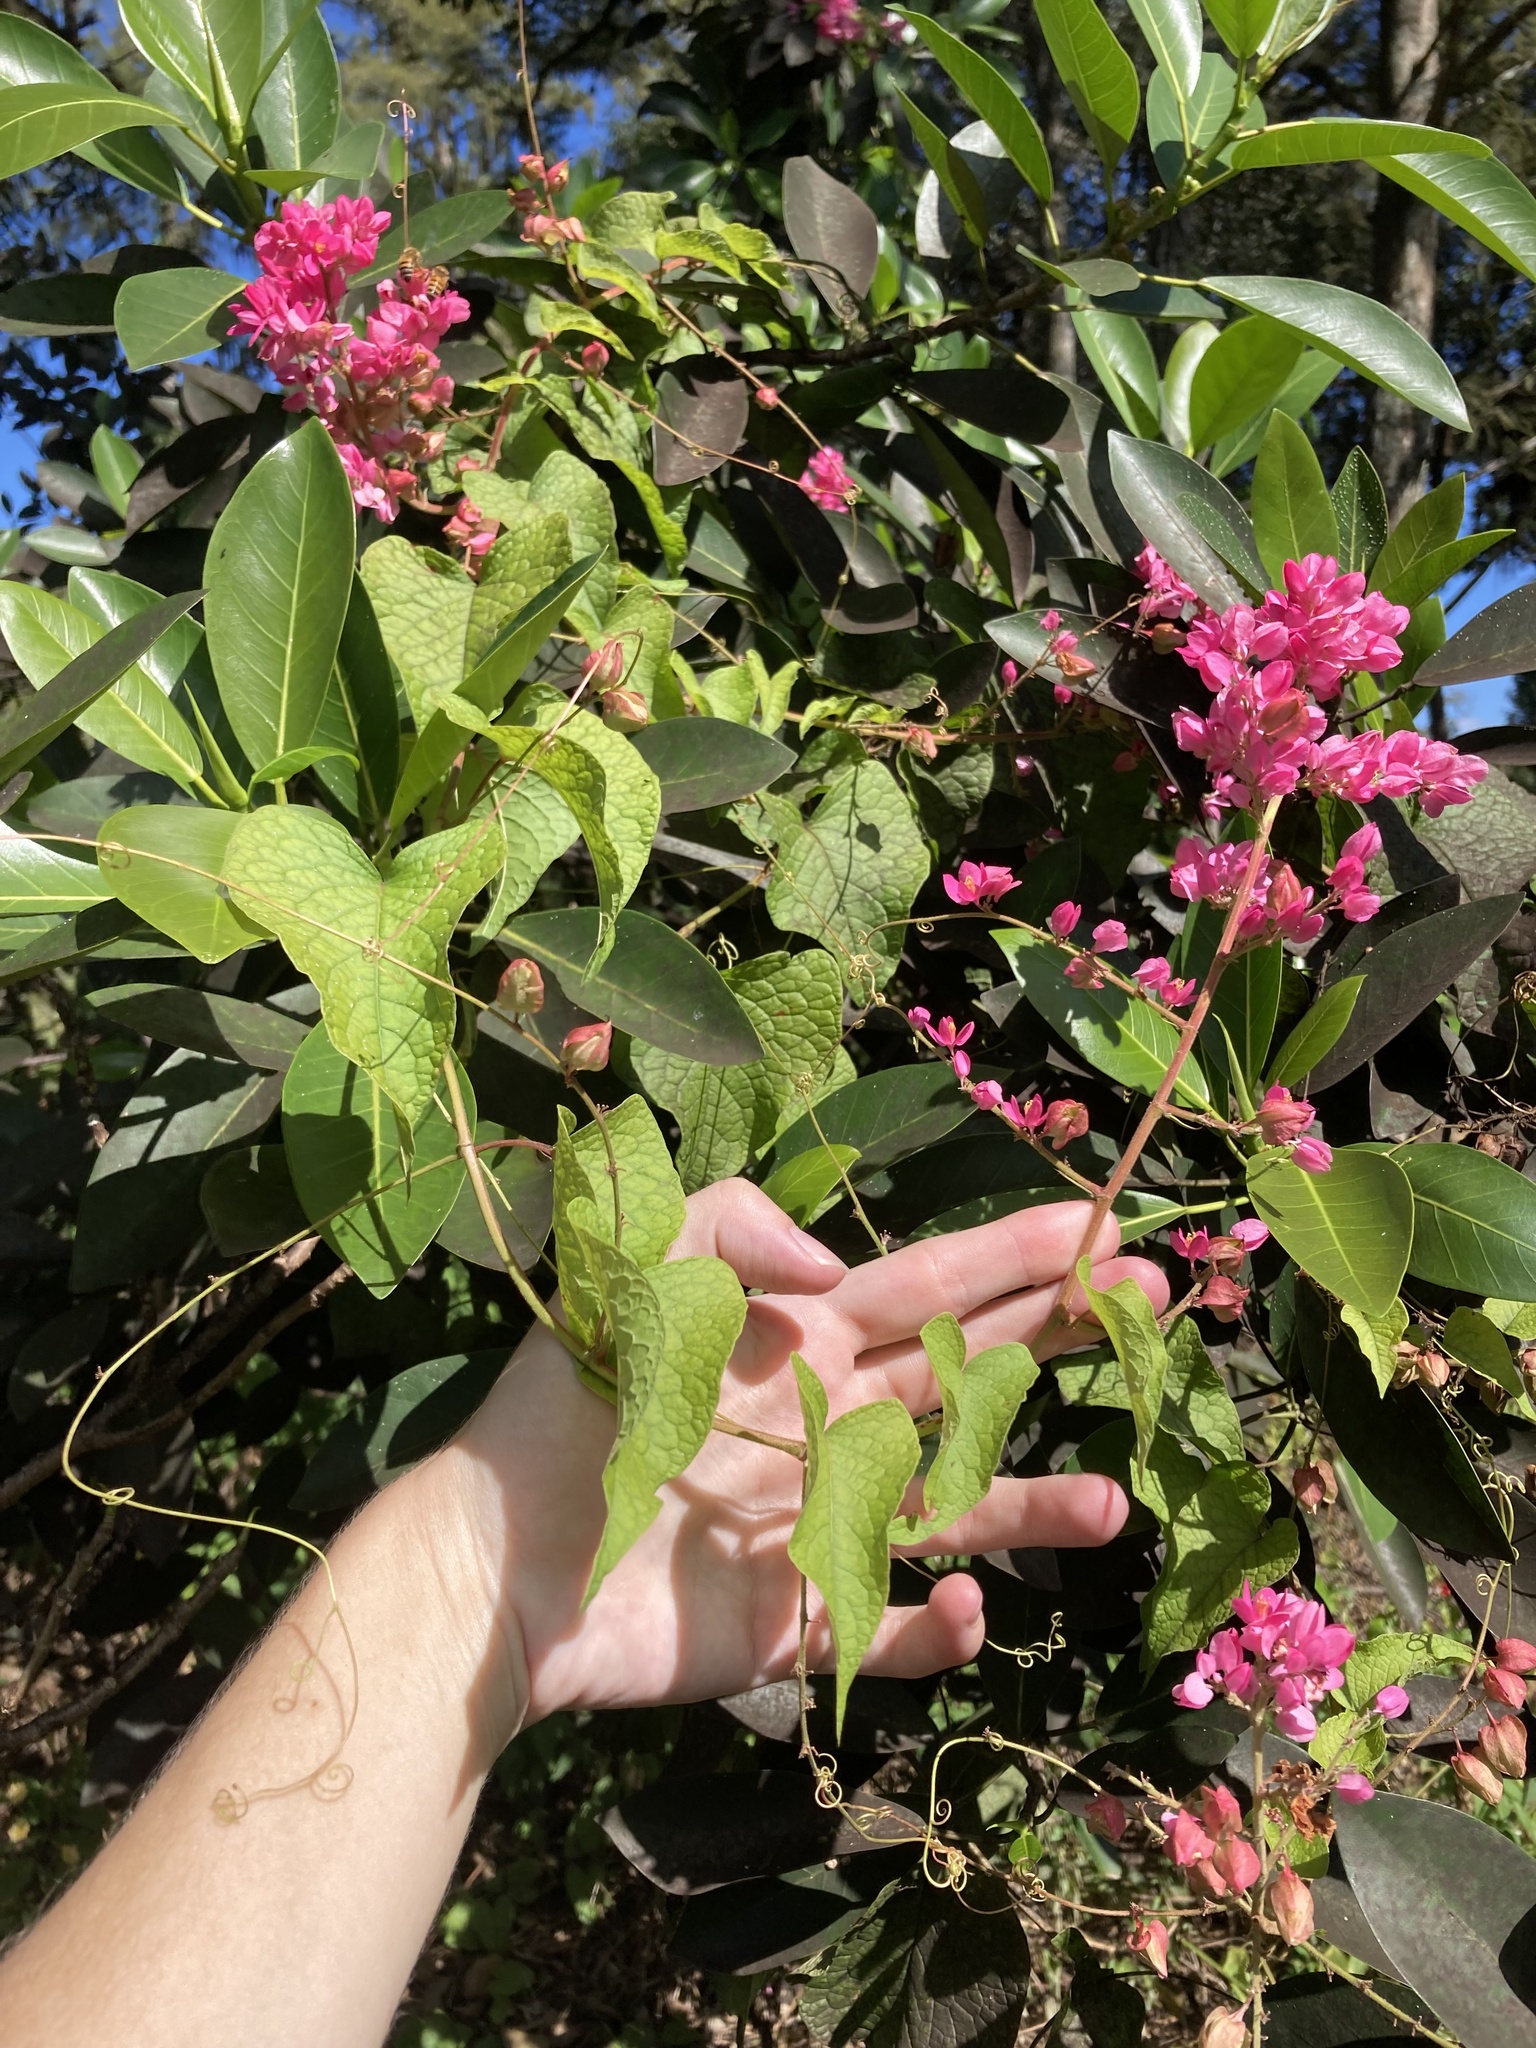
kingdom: Plantae
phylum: Tracheophyta
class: Magnoliopsida
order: Caryophyllales
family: Polygonaceae
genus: Antigonon
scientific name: Antigonon leptopus
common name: Coral vine
